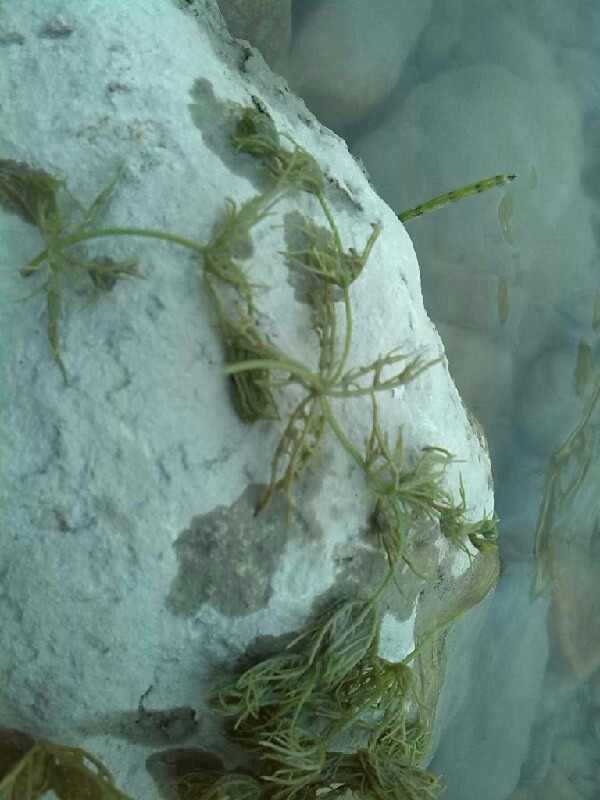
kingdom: Plantae
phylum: Charophyta
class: Charophyceae
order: Charales
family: Characeae
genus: Chara
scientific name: Chara vulgaris
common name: Common stonewort
